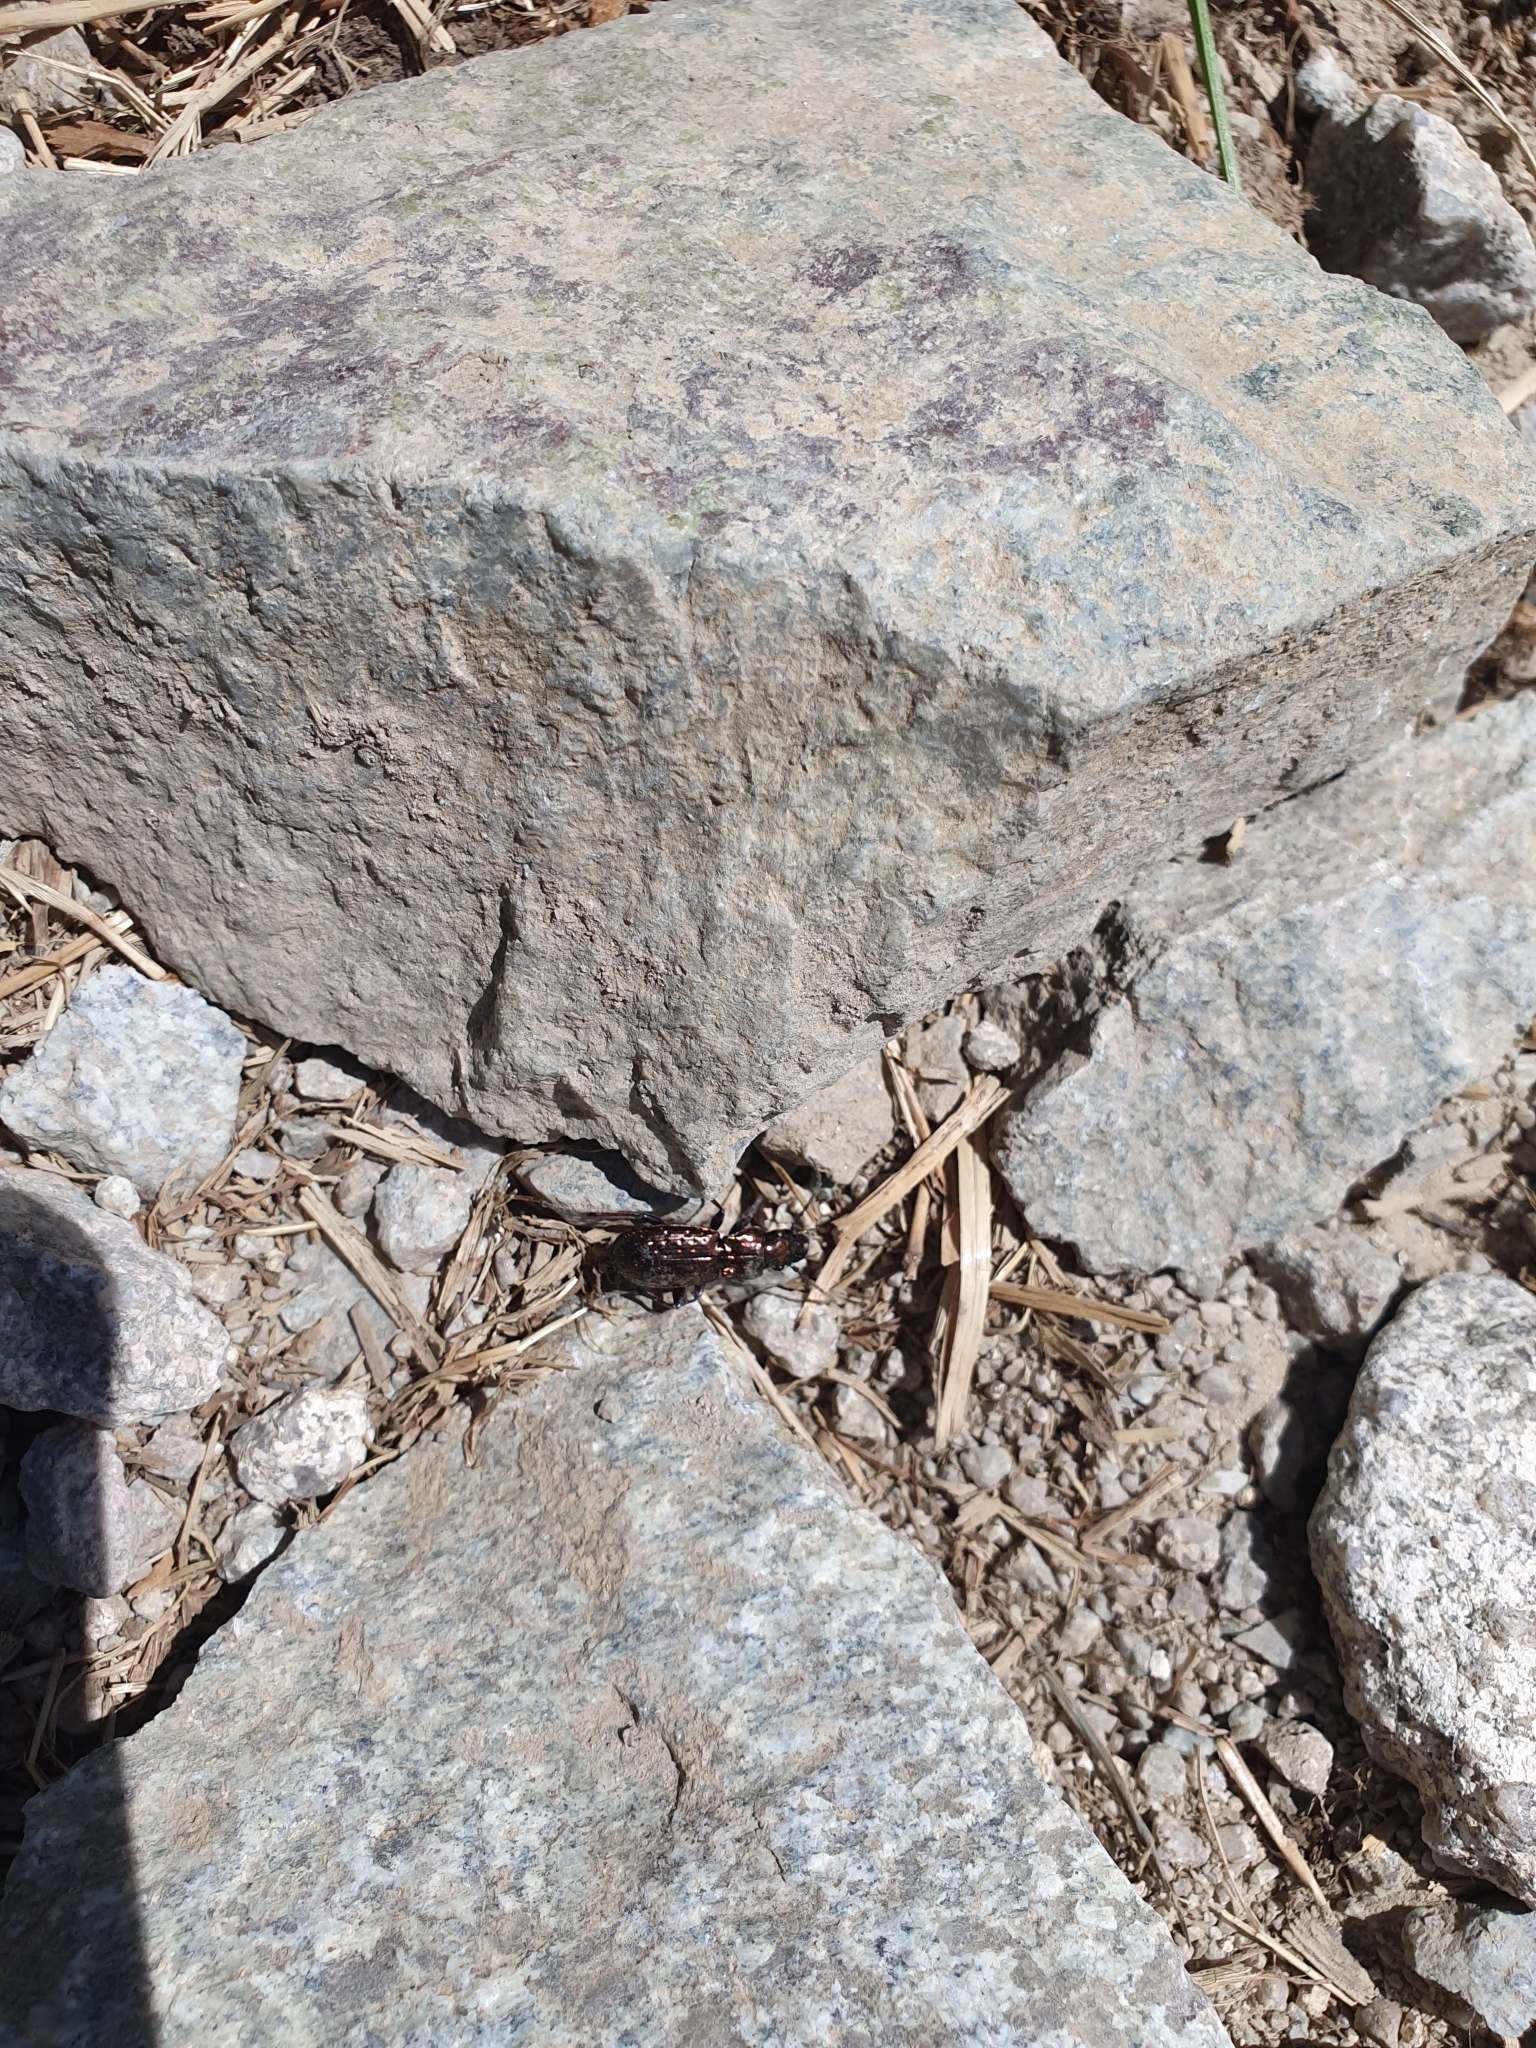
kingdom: Animalia
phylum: Arthropoda
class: Insecta
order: Coleoptera
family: Carabidae
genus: Pterostichus
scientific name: Pterostichus pilosus
